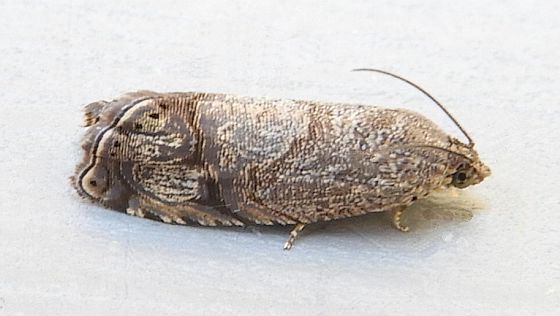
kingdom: Animalia
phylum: Arthropoda
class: Insecta
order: Lepidoptera
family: Tortricidae
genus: Ethelgoda
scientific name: Ethelgoda texanana
